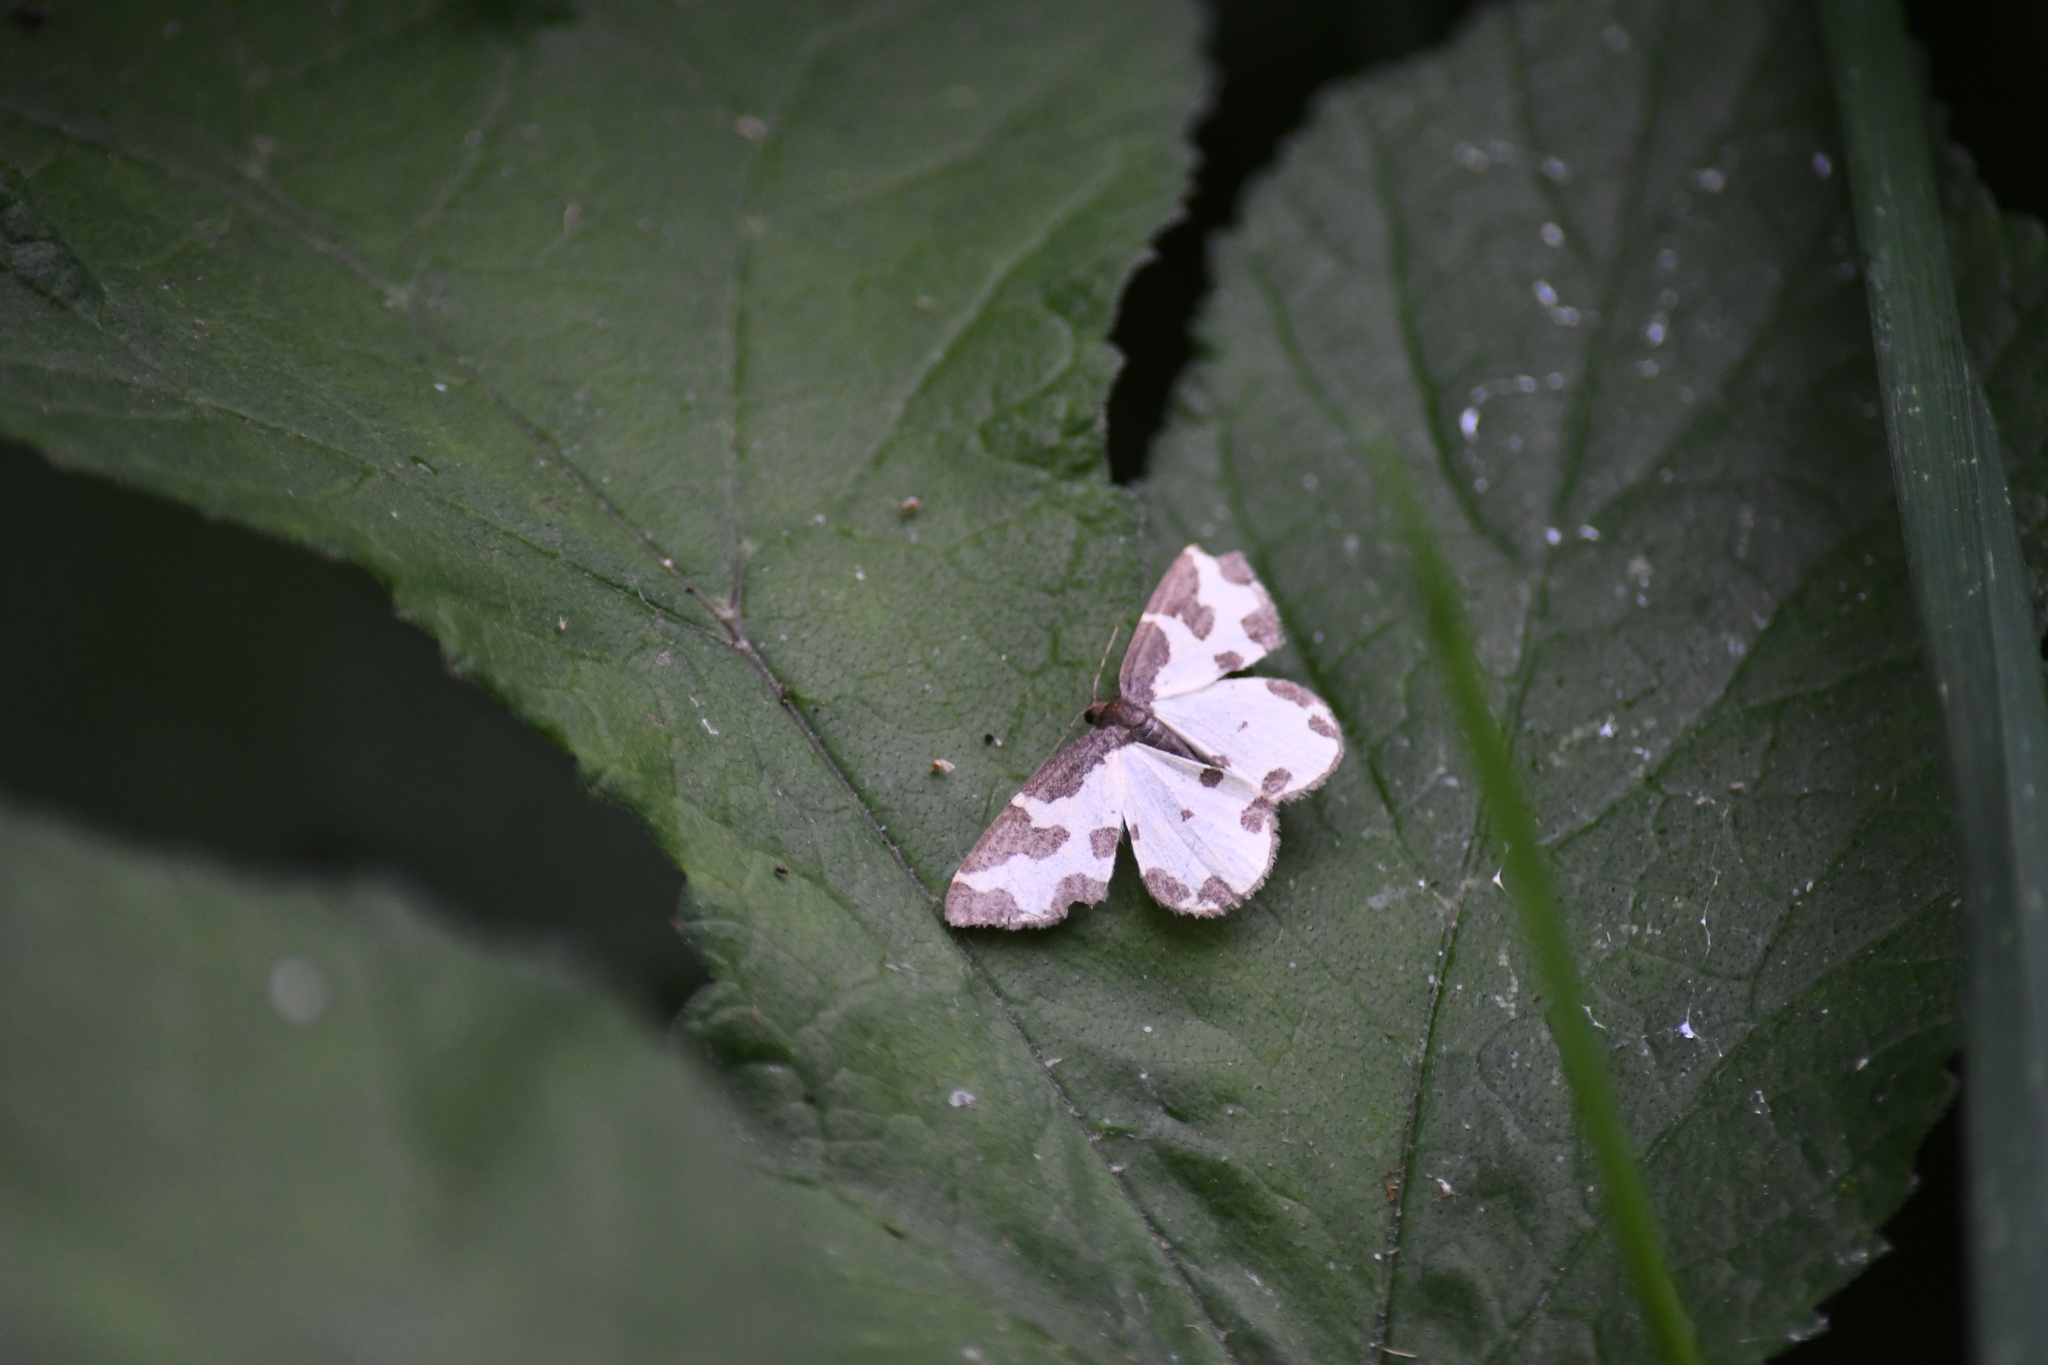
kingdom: Animalia
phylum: Arthropoda
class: Insecta
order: Lepidoptera
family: Geometridae
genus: Lomaspilis
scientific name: Lomaspilis marginata
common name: Clouded border
